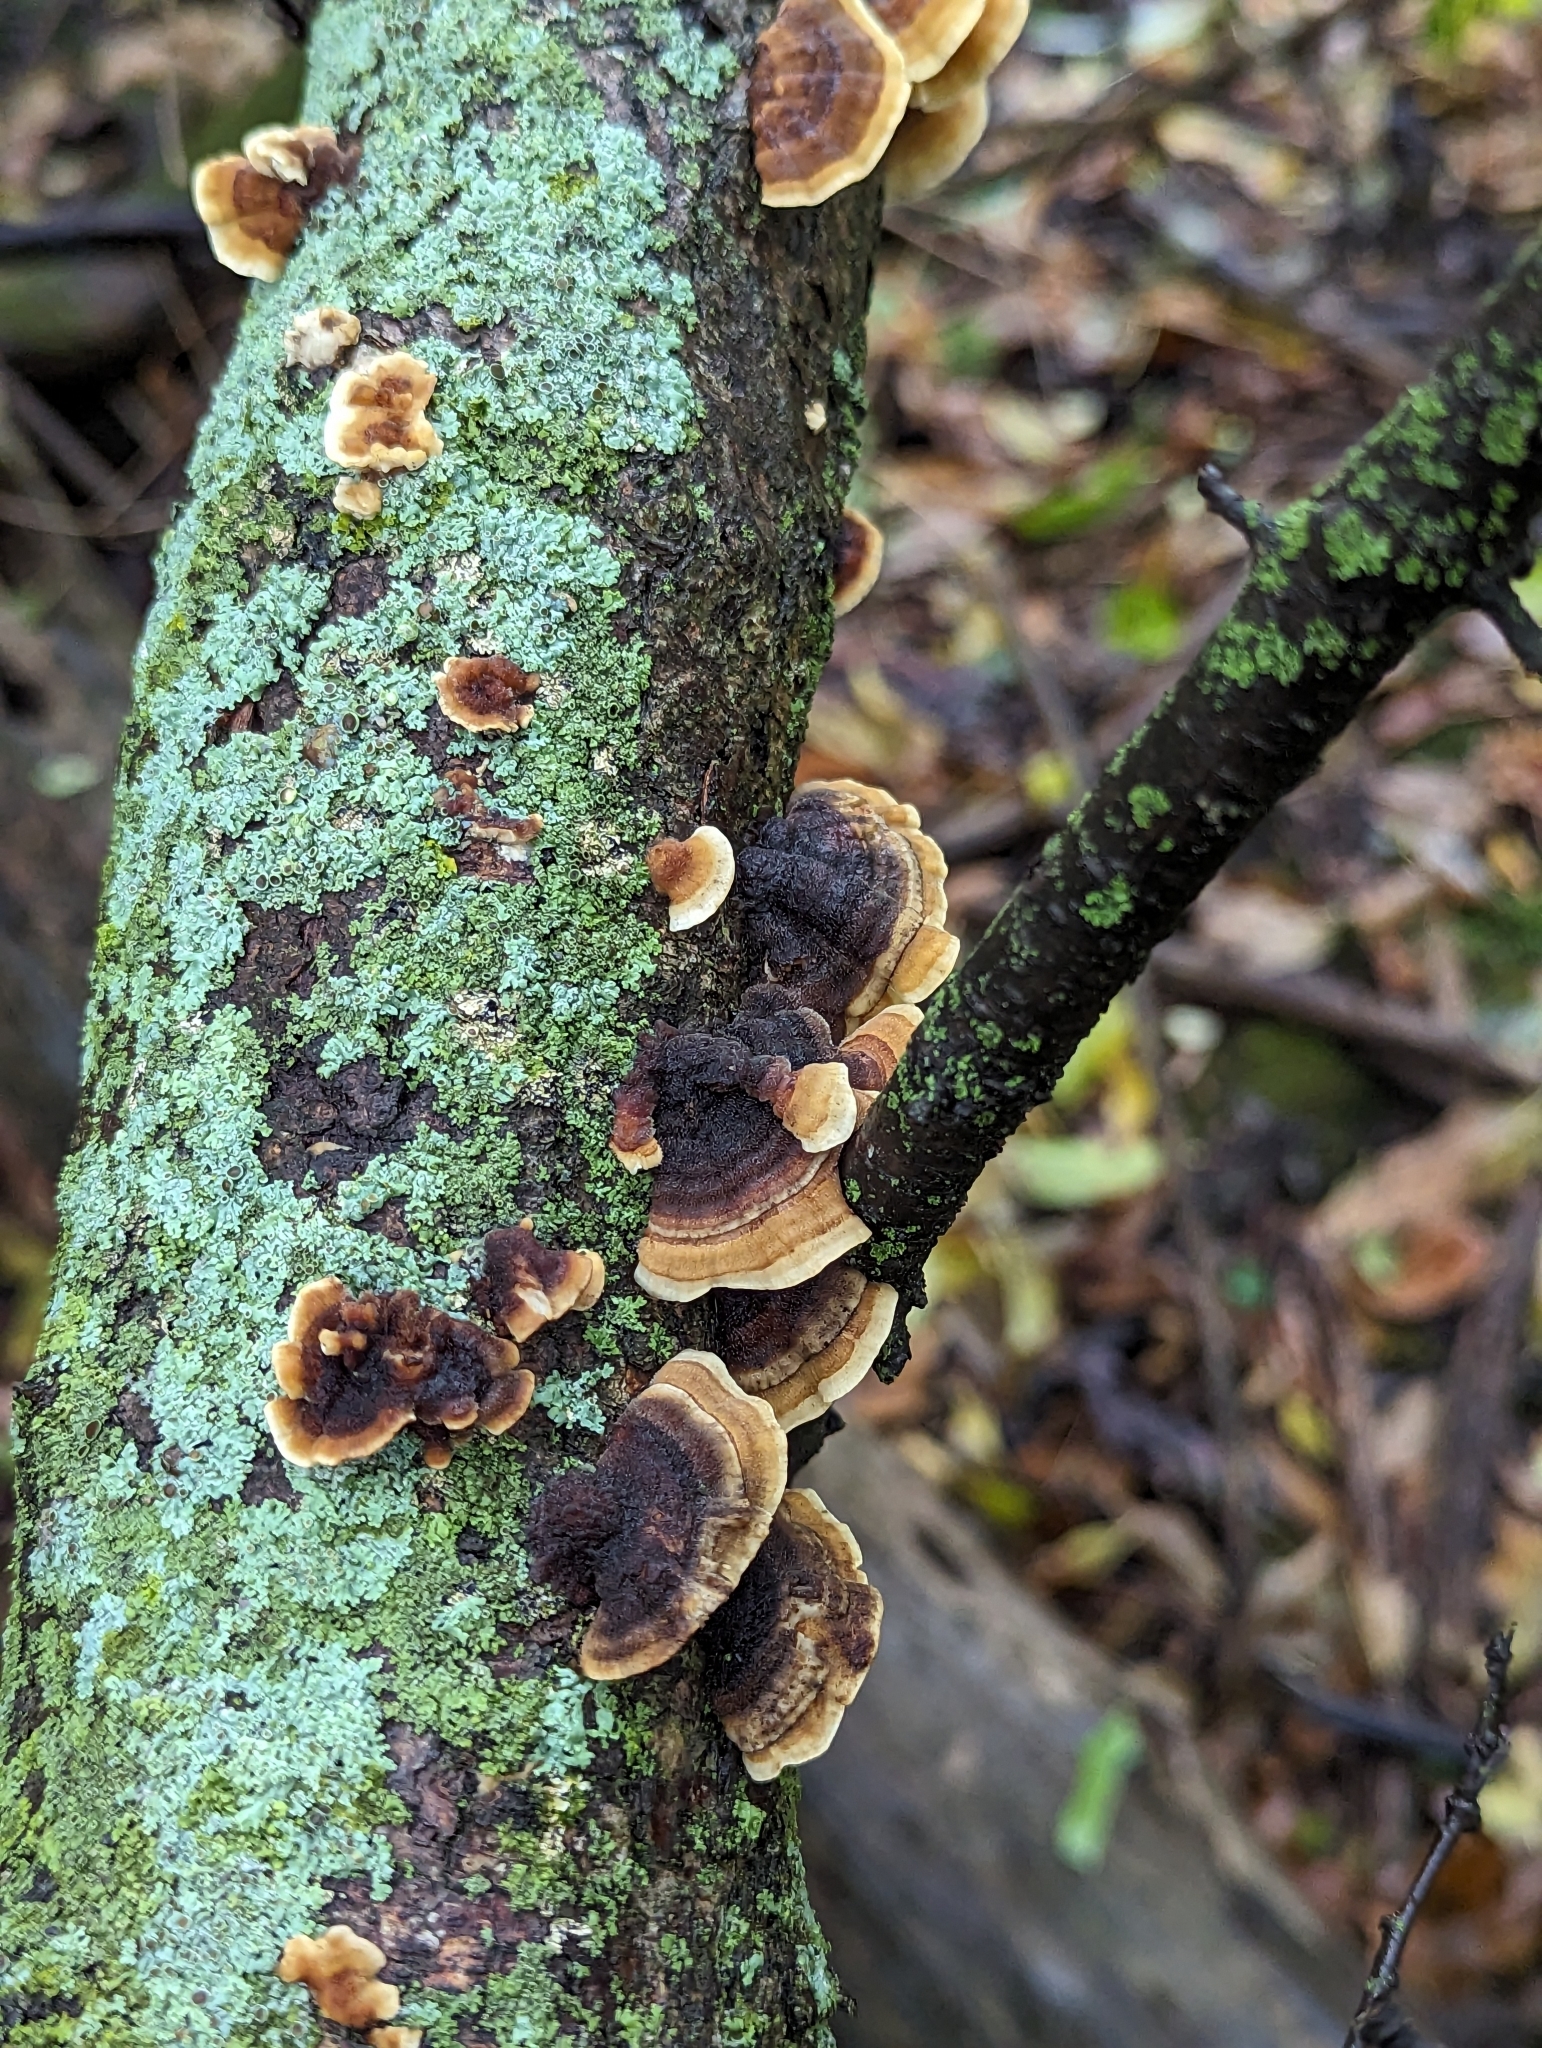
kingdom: Fungi
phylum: Basidiomycota
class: Agaricomycetes
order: Polyporales
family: Polyporaceae
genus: Trametes
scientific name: Trametes versicolor
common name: Turkeytail
